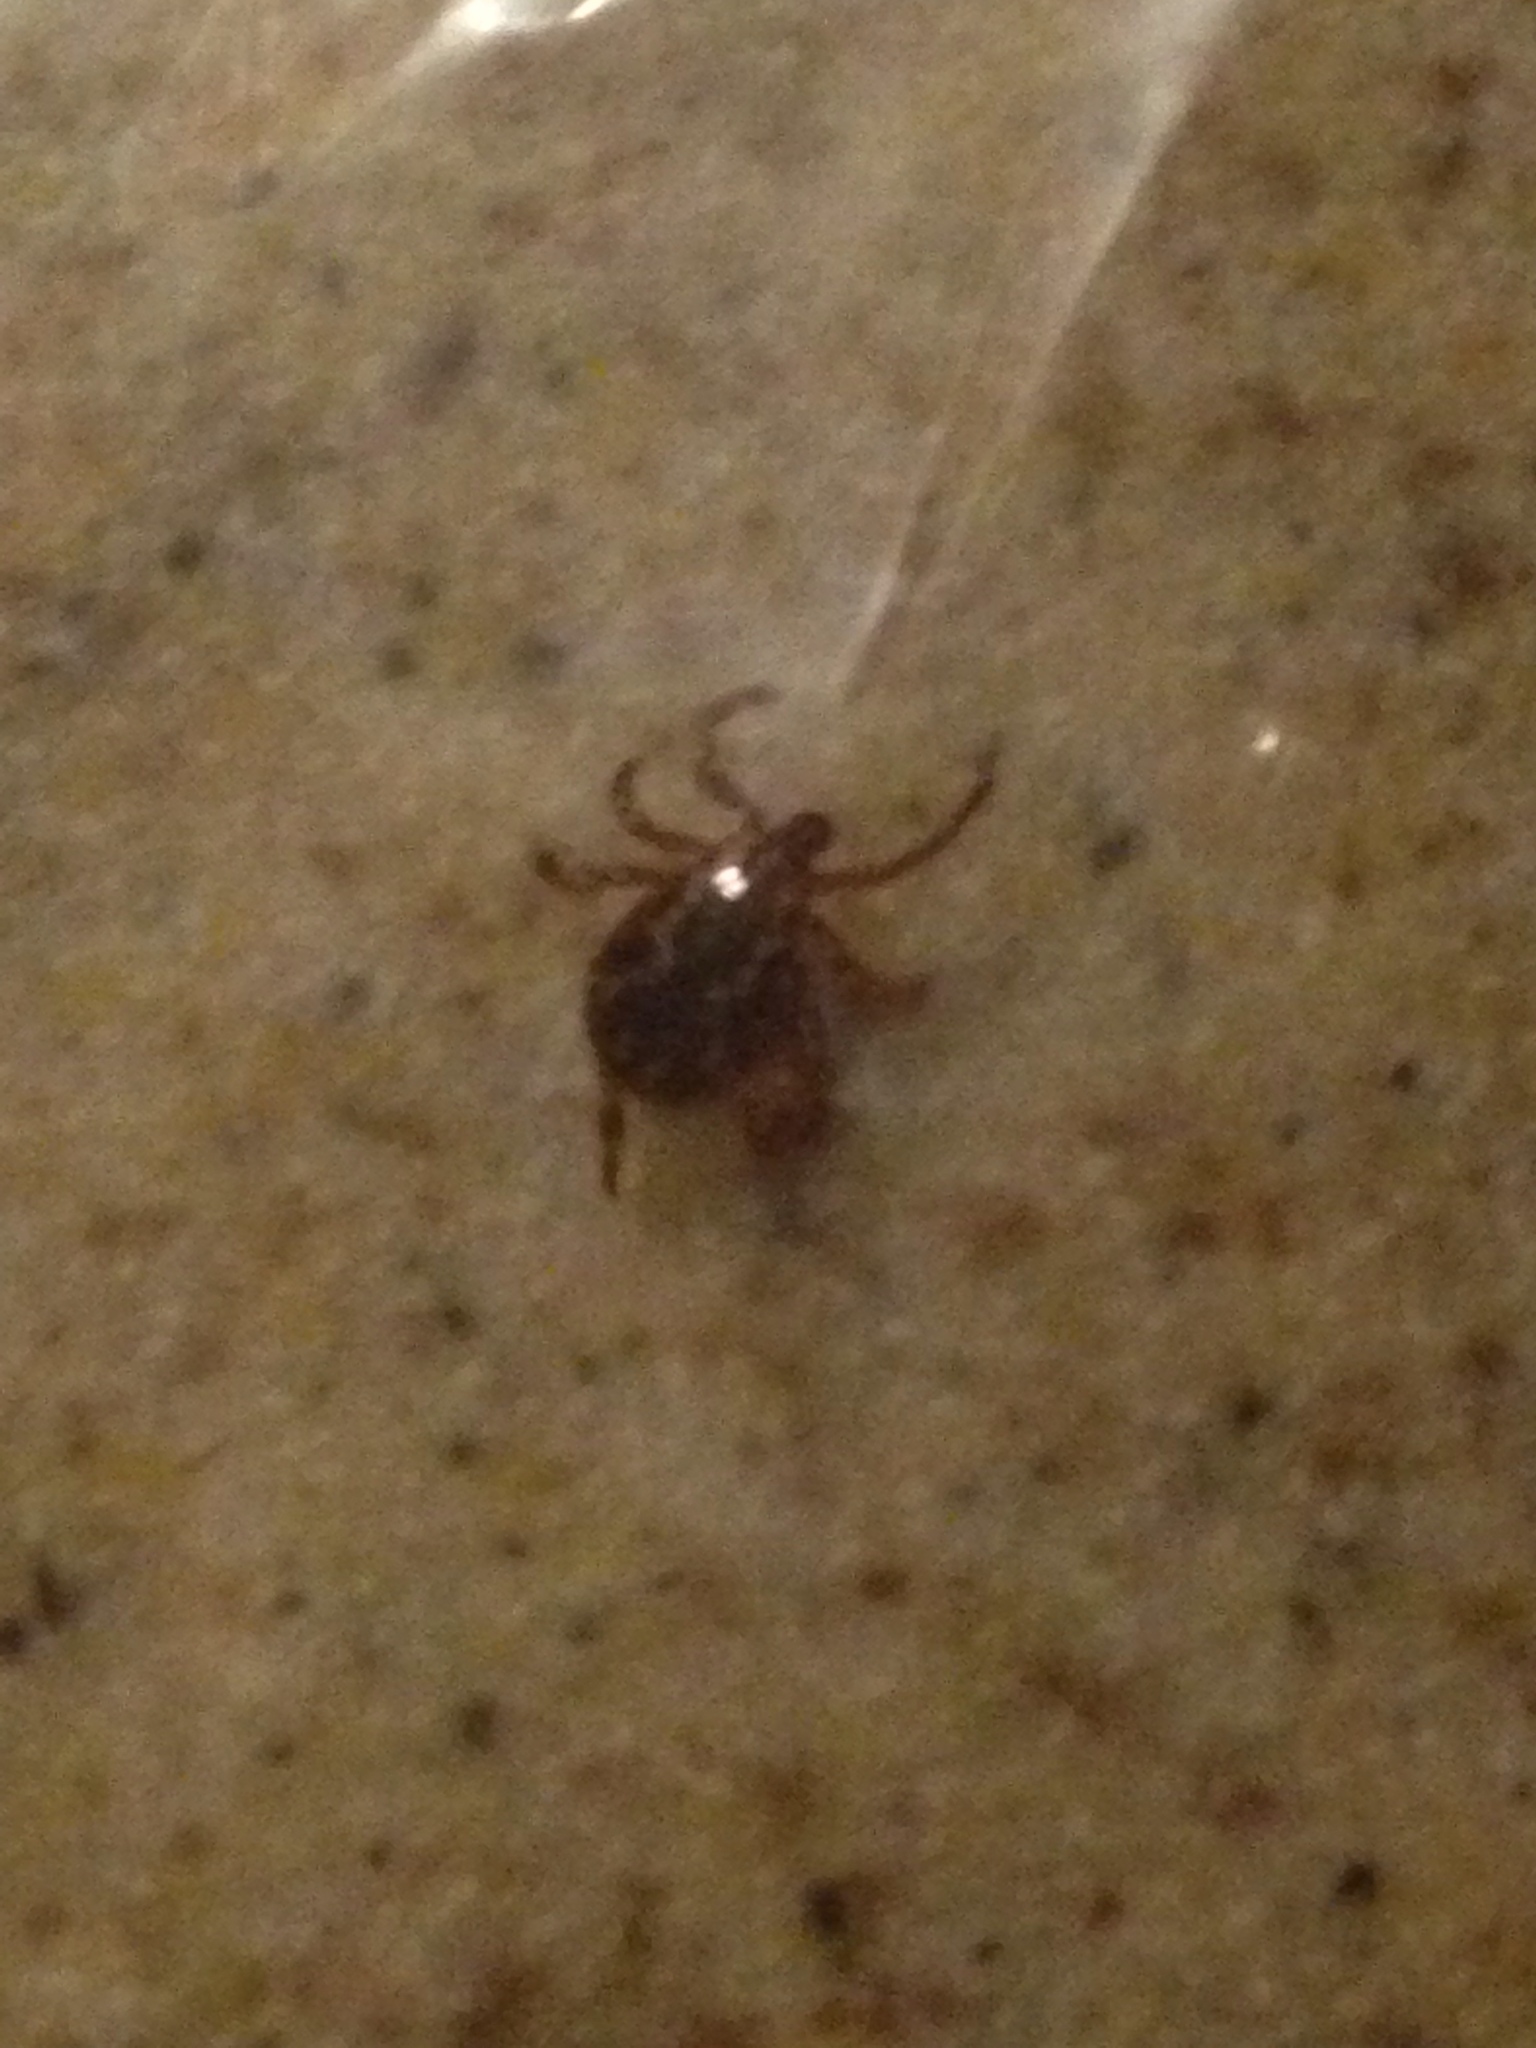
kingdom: Animalia
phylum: Arthropoda
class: Arachnida
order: Ixodida
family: Ixodidae
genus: Dermacentor
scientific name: Dermacentor variabilis
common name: American dog tick
